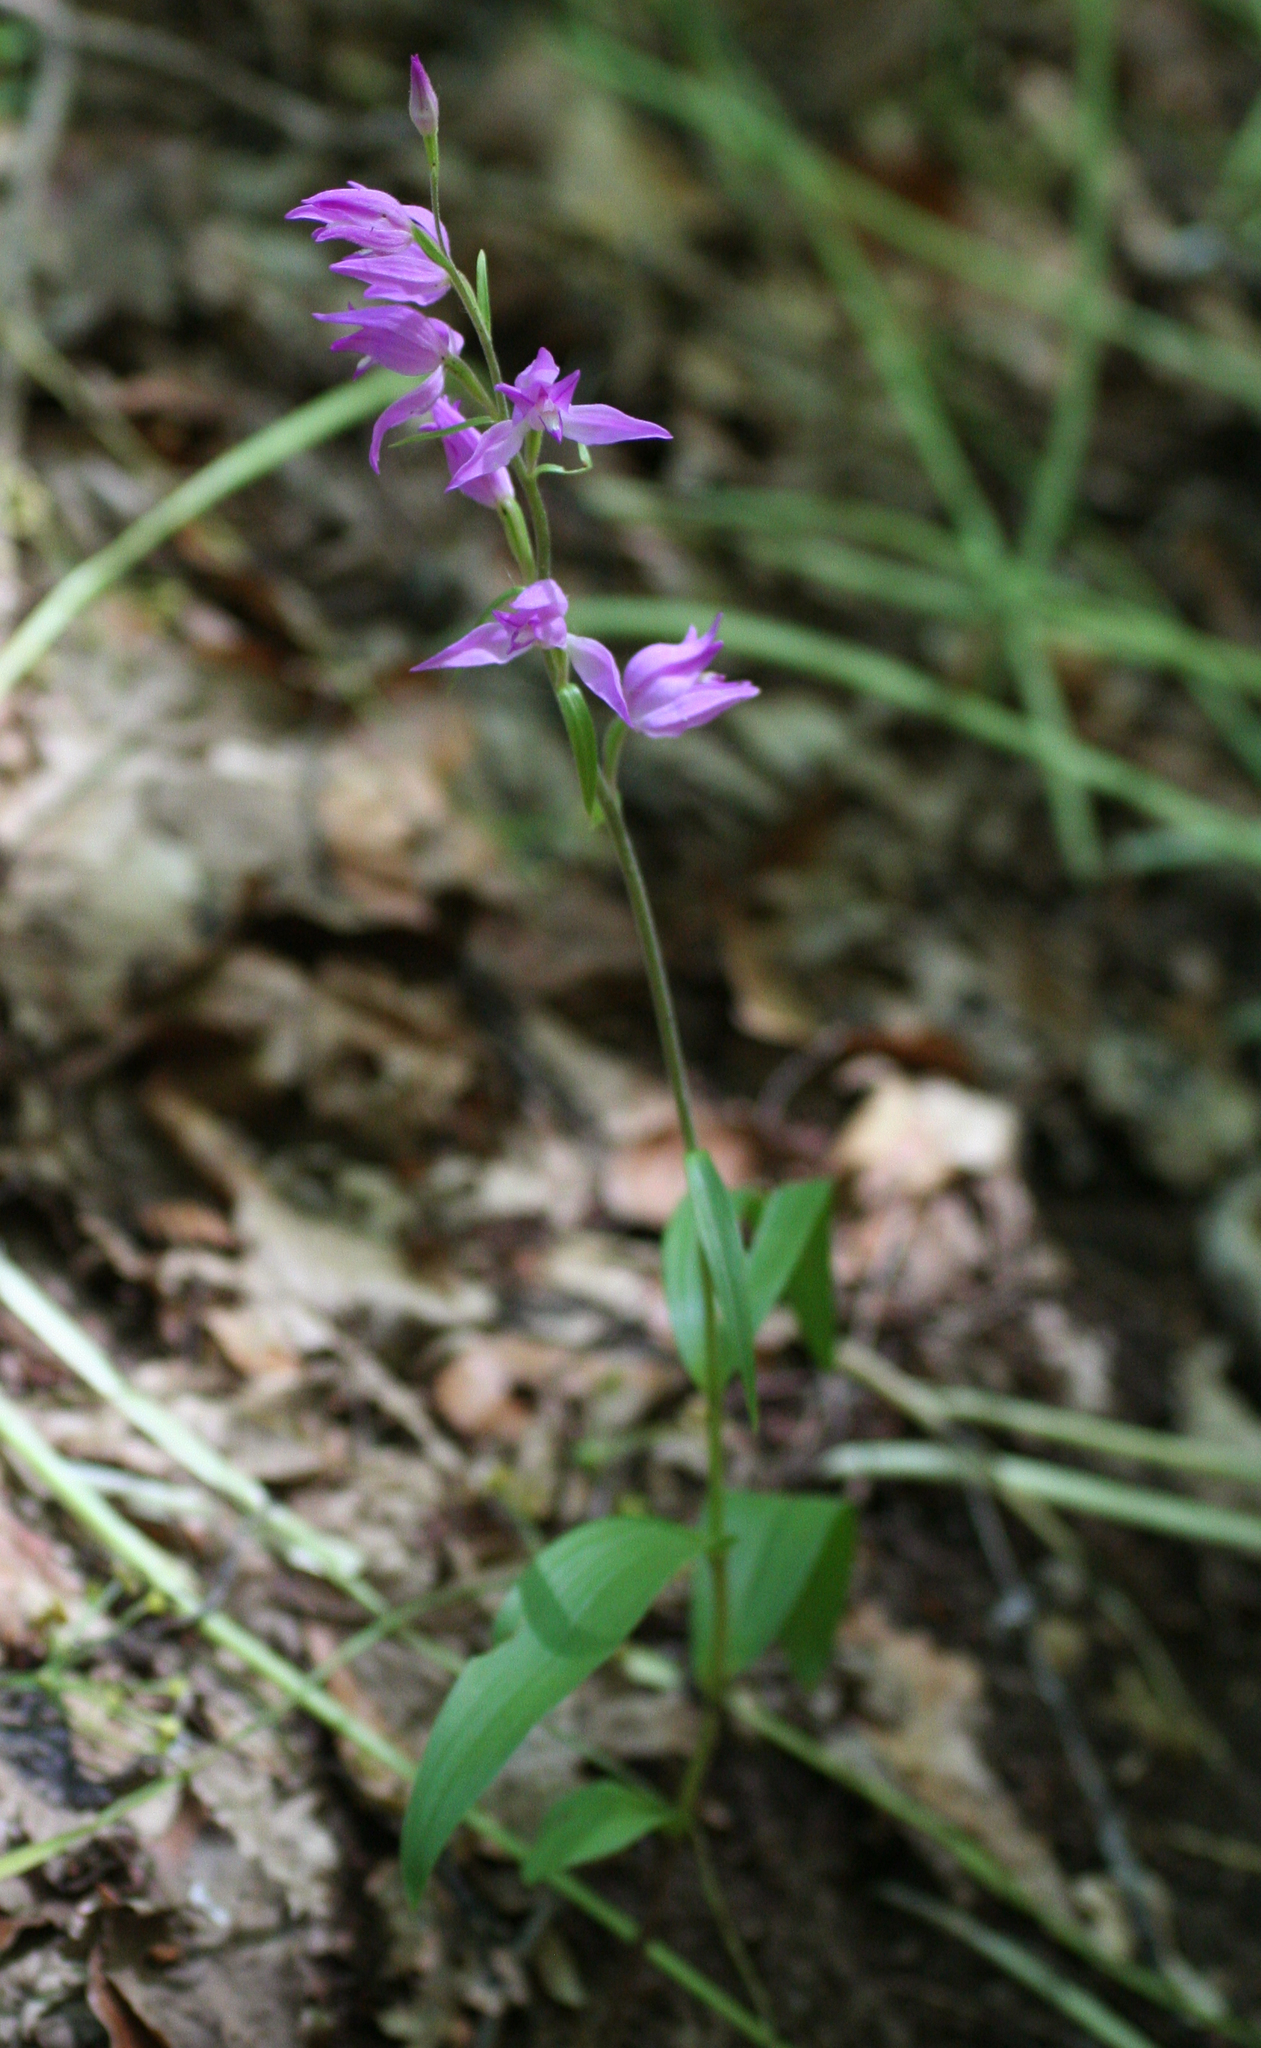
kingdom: Plantae
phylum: Tracheophyta
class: Liliopsida
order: Asparagales
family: Orchidaceae
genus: Cephalanthera
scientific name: Cephalanthera rubra
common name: Red helleborine
